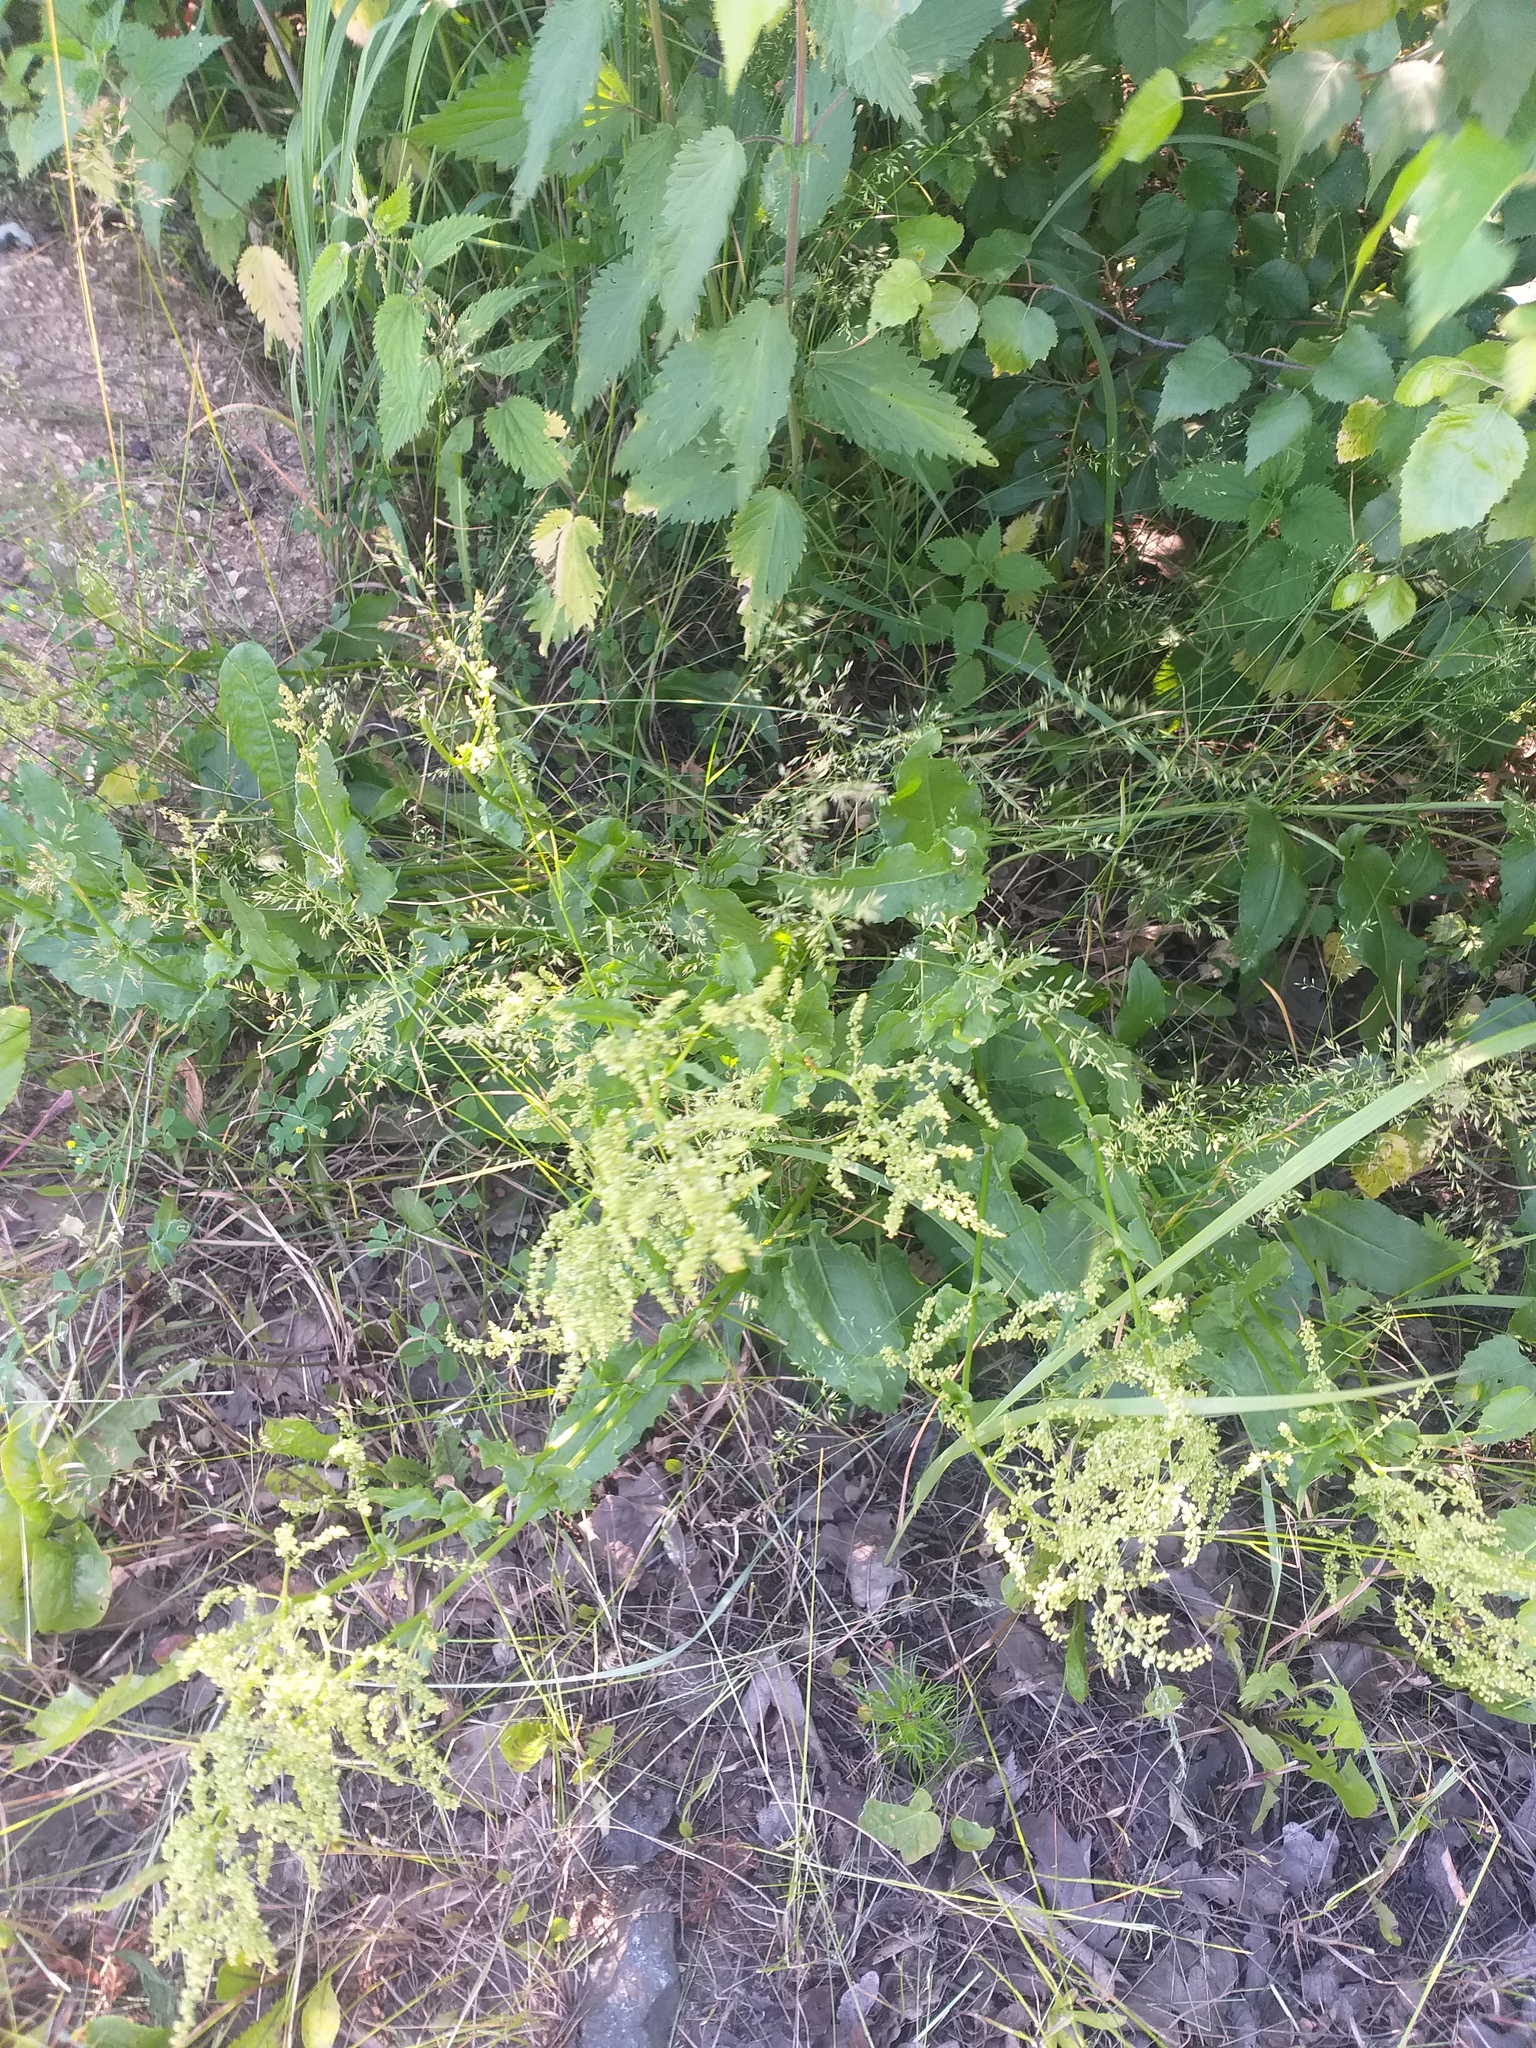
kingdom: Plantae
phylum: Tracheophyta
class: Magnoliopsida
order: Caryophyllales
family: Polygonaceae
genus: Rumex
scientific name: Rumex thyrsiflorus
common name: Garden sorrel
